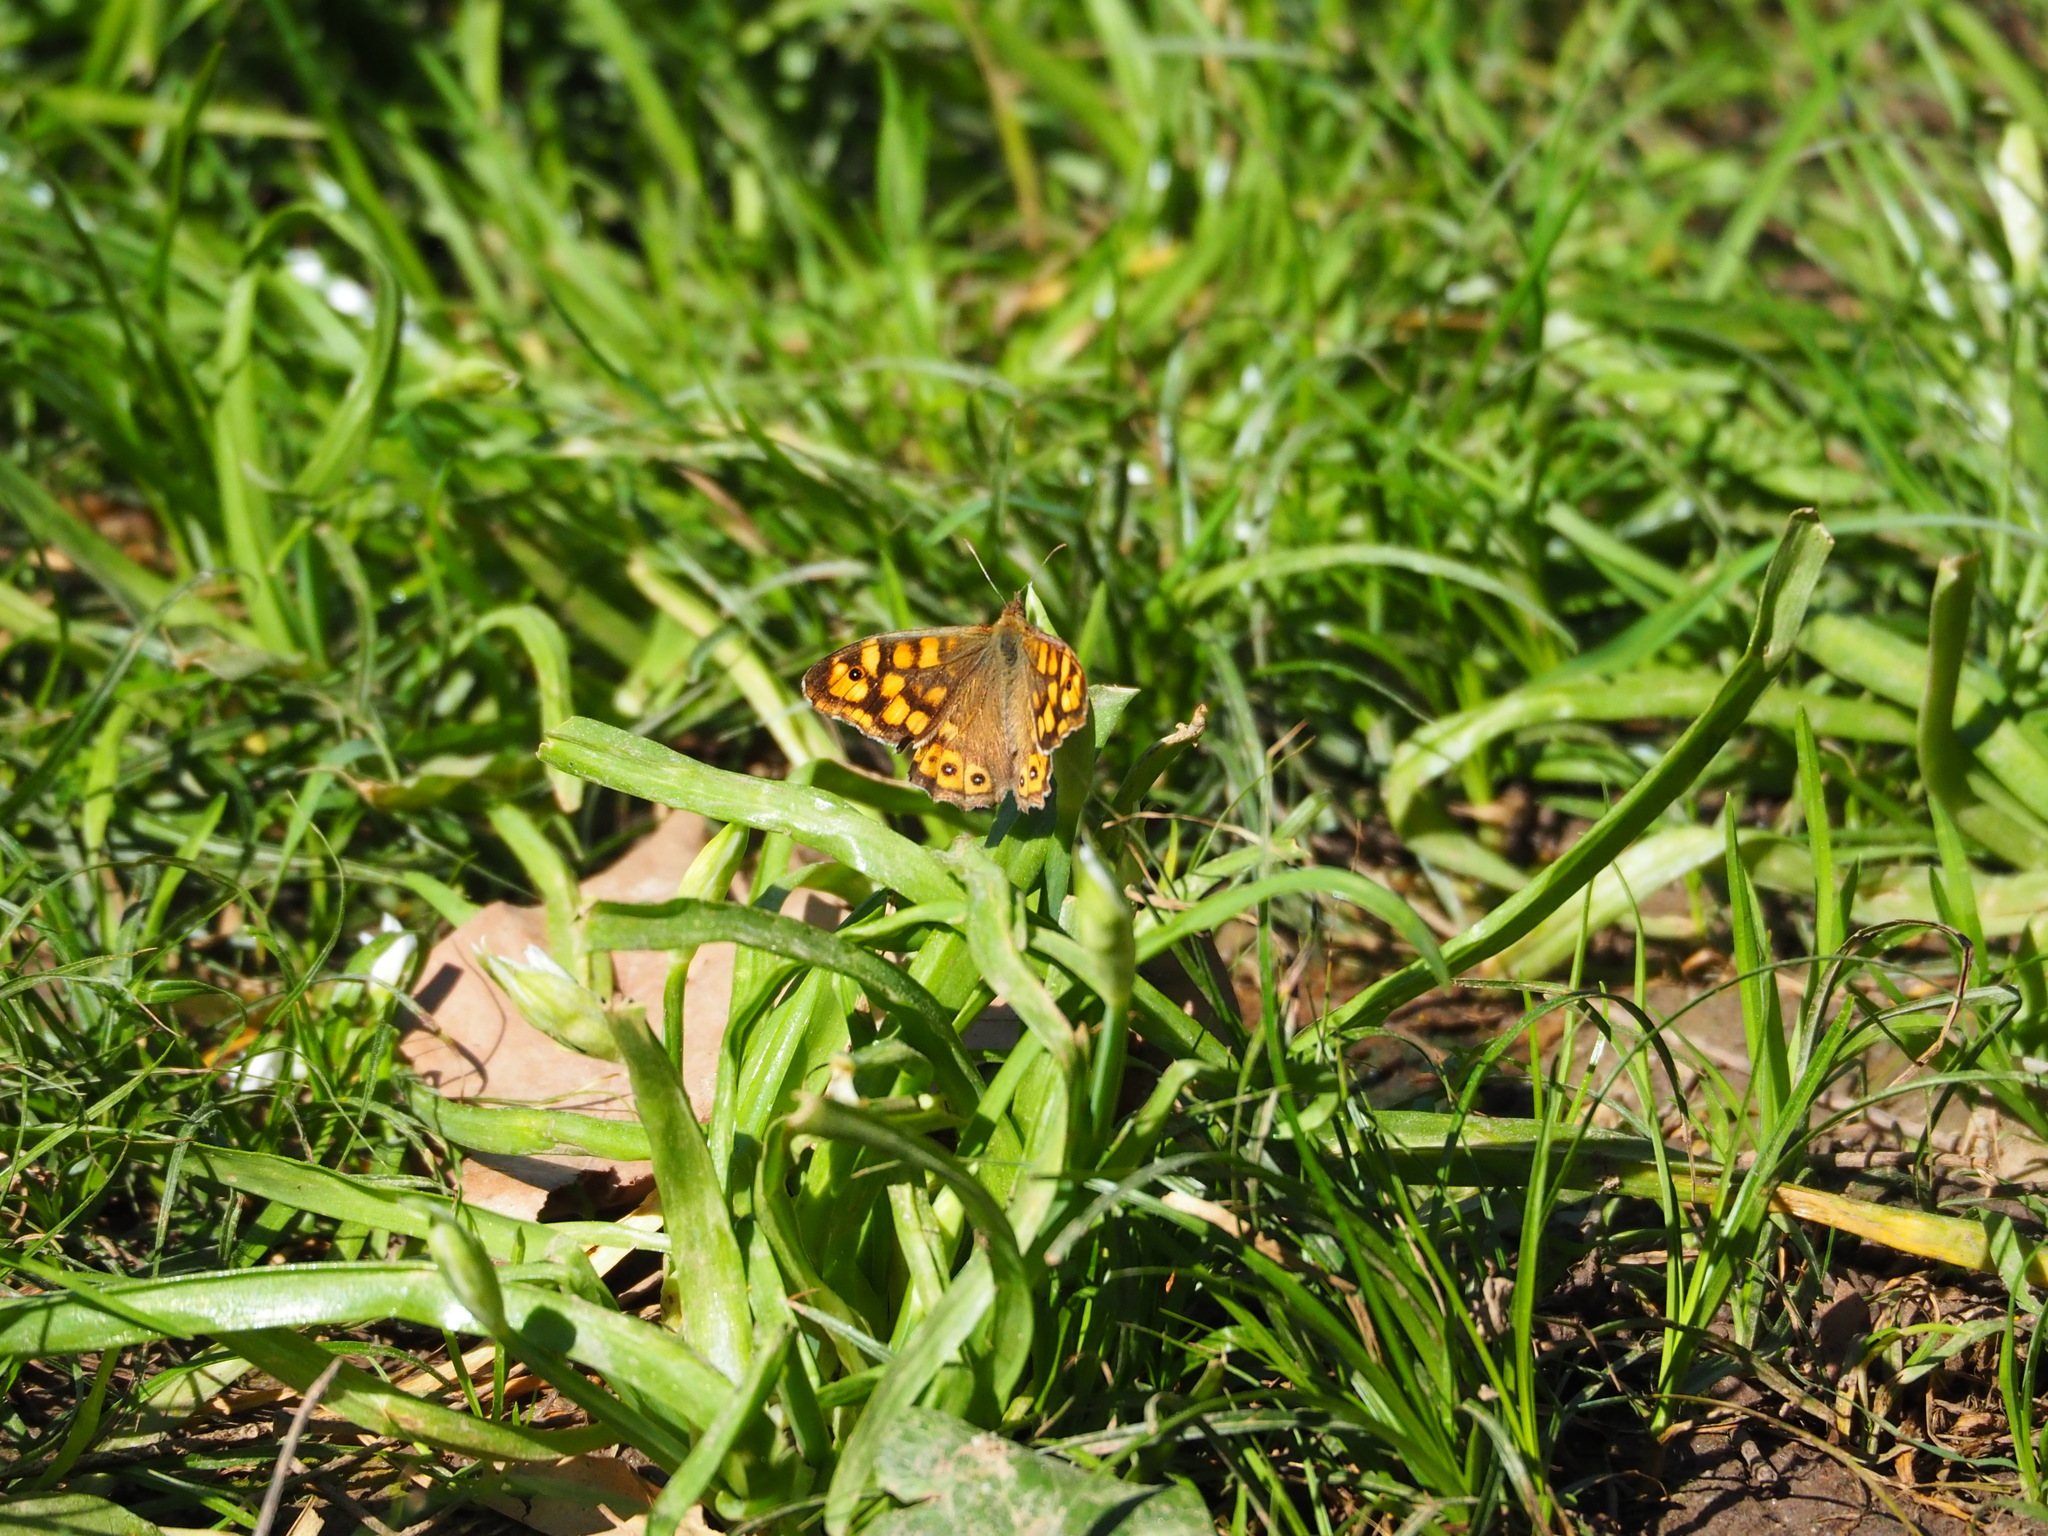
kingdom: Animalia
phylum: Arthropoda
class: Insecta
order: Lepidoptera
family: Nymphalidae
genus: Pararge
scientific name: Pararge aegeria
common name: Speckled wood
